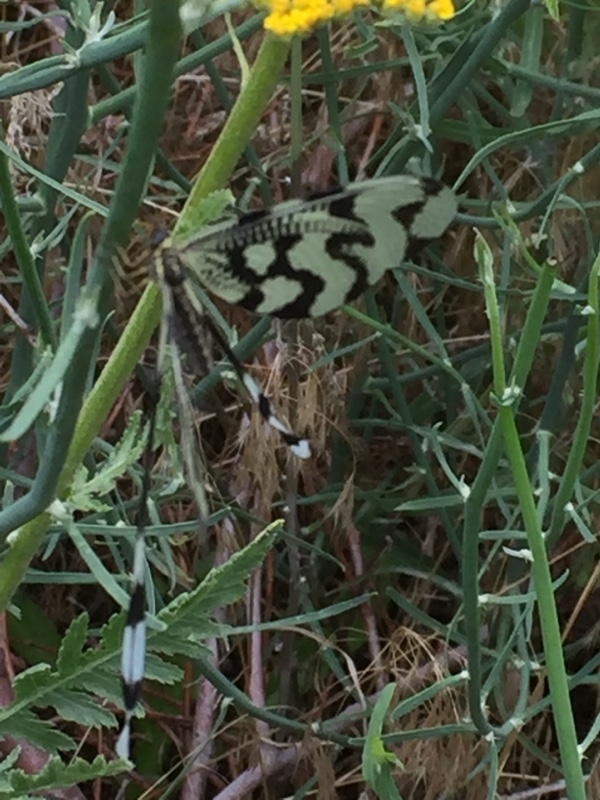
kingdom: Animalia
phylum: Arthropoda
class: Insecta
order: Neuroptera
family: Nemopteridae
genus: Nemoptera
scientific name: Nemoptera sinuata
